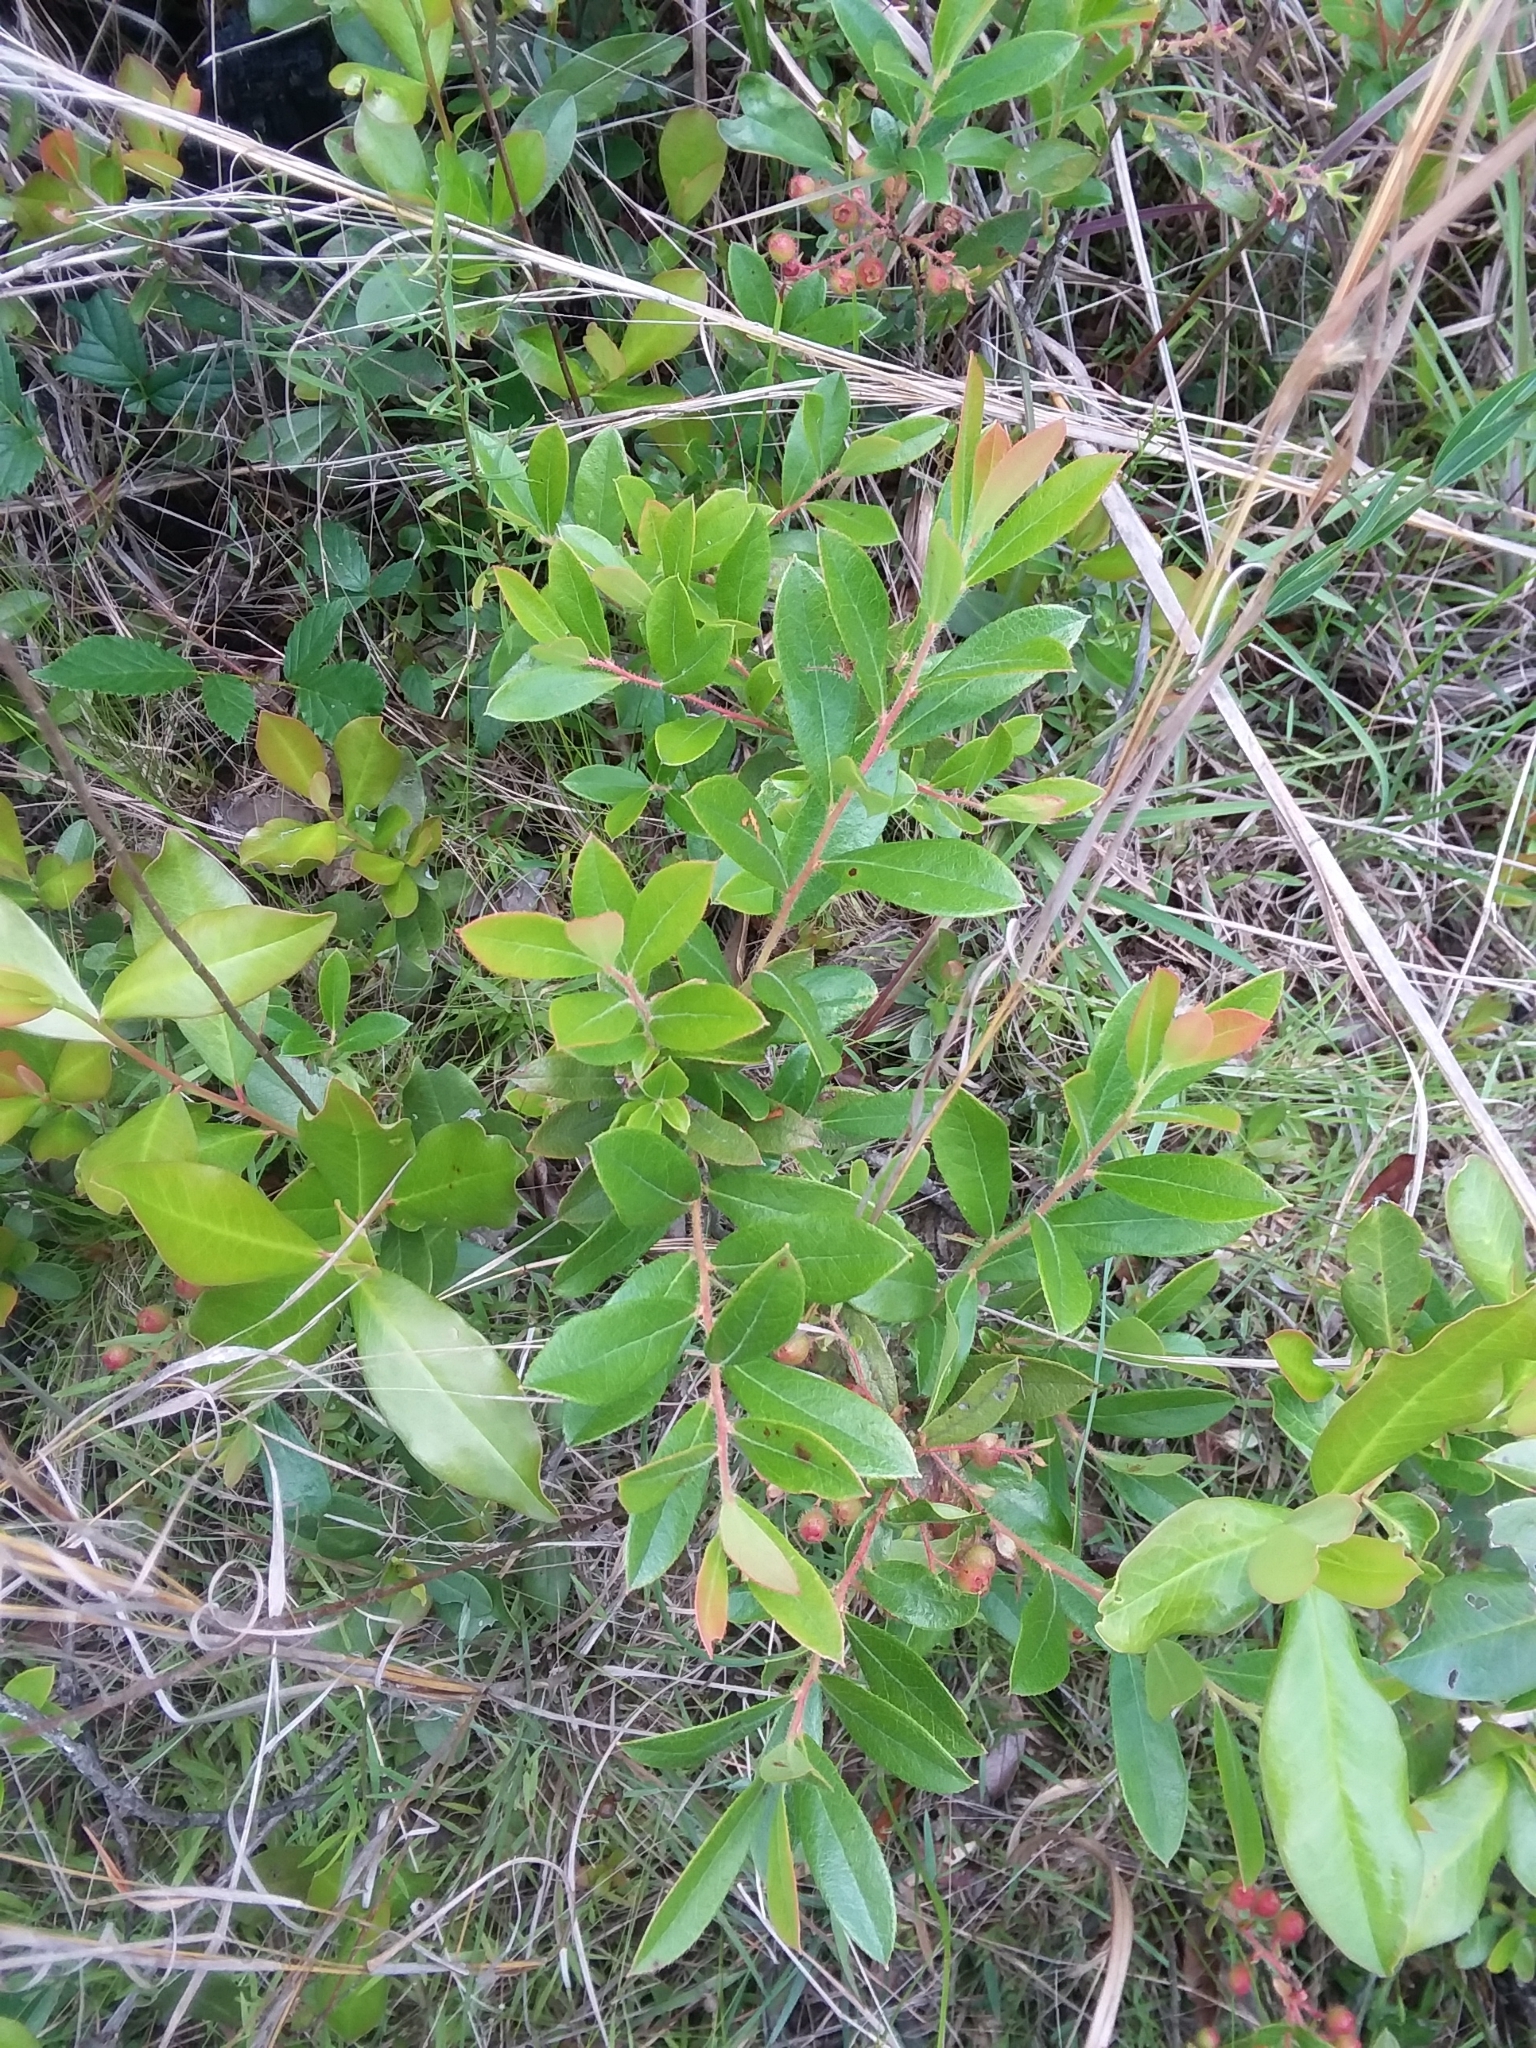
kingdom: Plantae
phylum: Tracheophyta
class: Magnoliopsida
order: Ericales
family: Ericaceae
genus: Gaylussacia
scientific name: Gaylussacia mosieri
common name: Hirsute huckleberry
